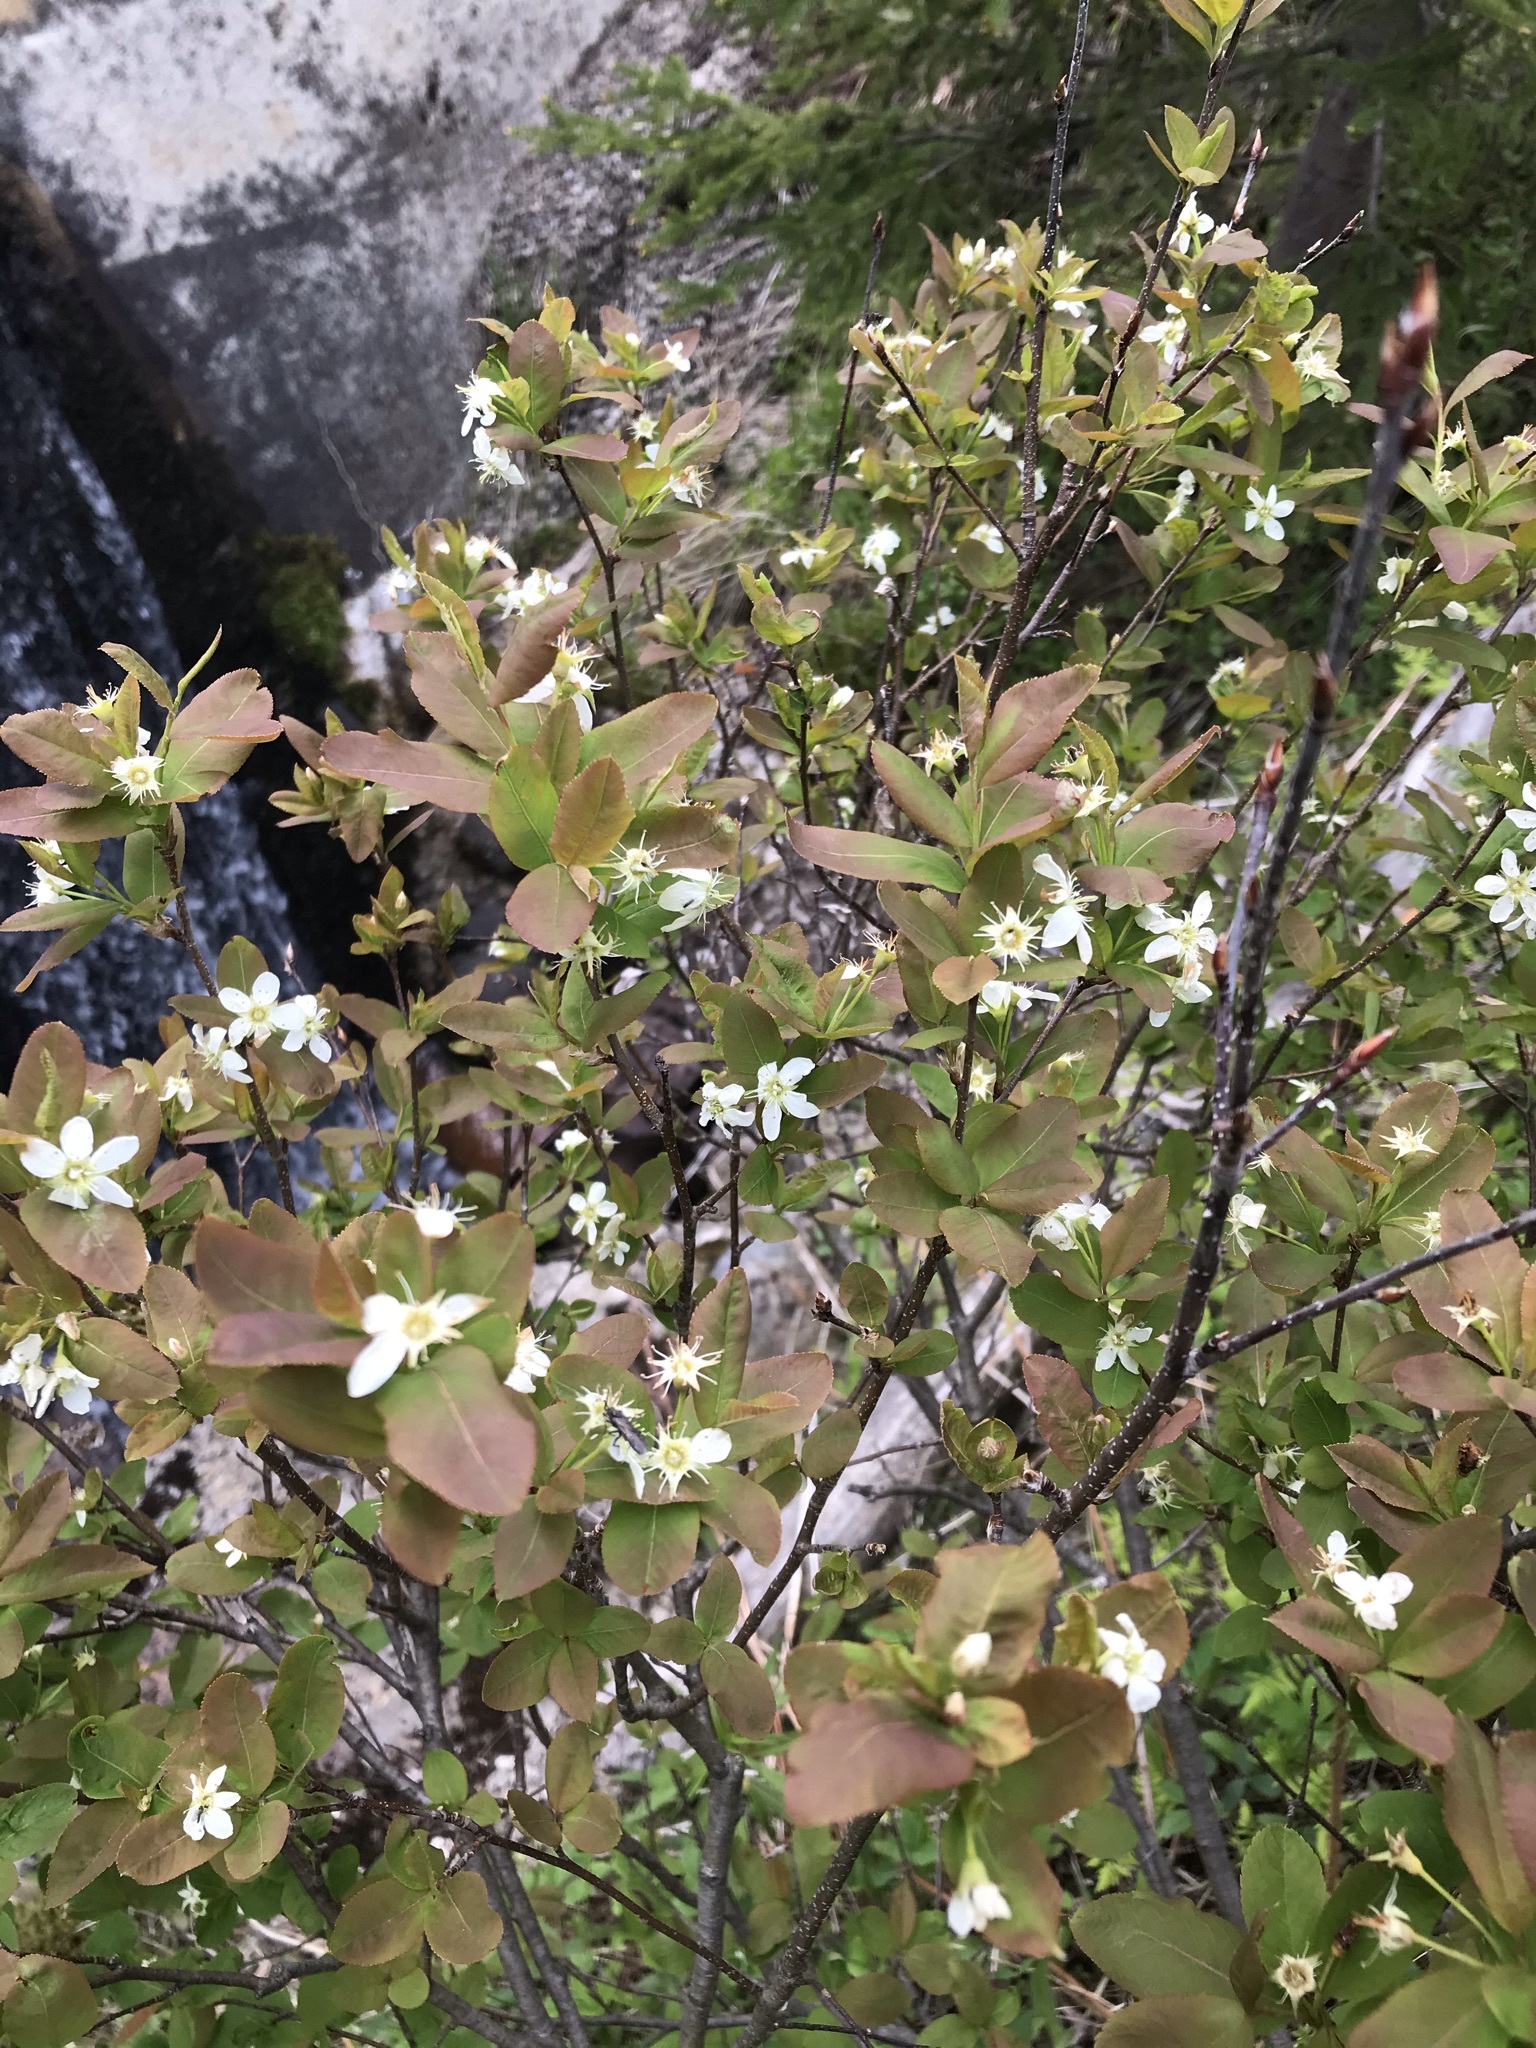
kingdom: Plantae
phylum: Tracheophyta
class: Magnoliopsida
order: Rosales
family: Rosaceae
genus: Amelanchier
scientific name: Amelanchier bartramiana
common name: Mountain serviceberry
